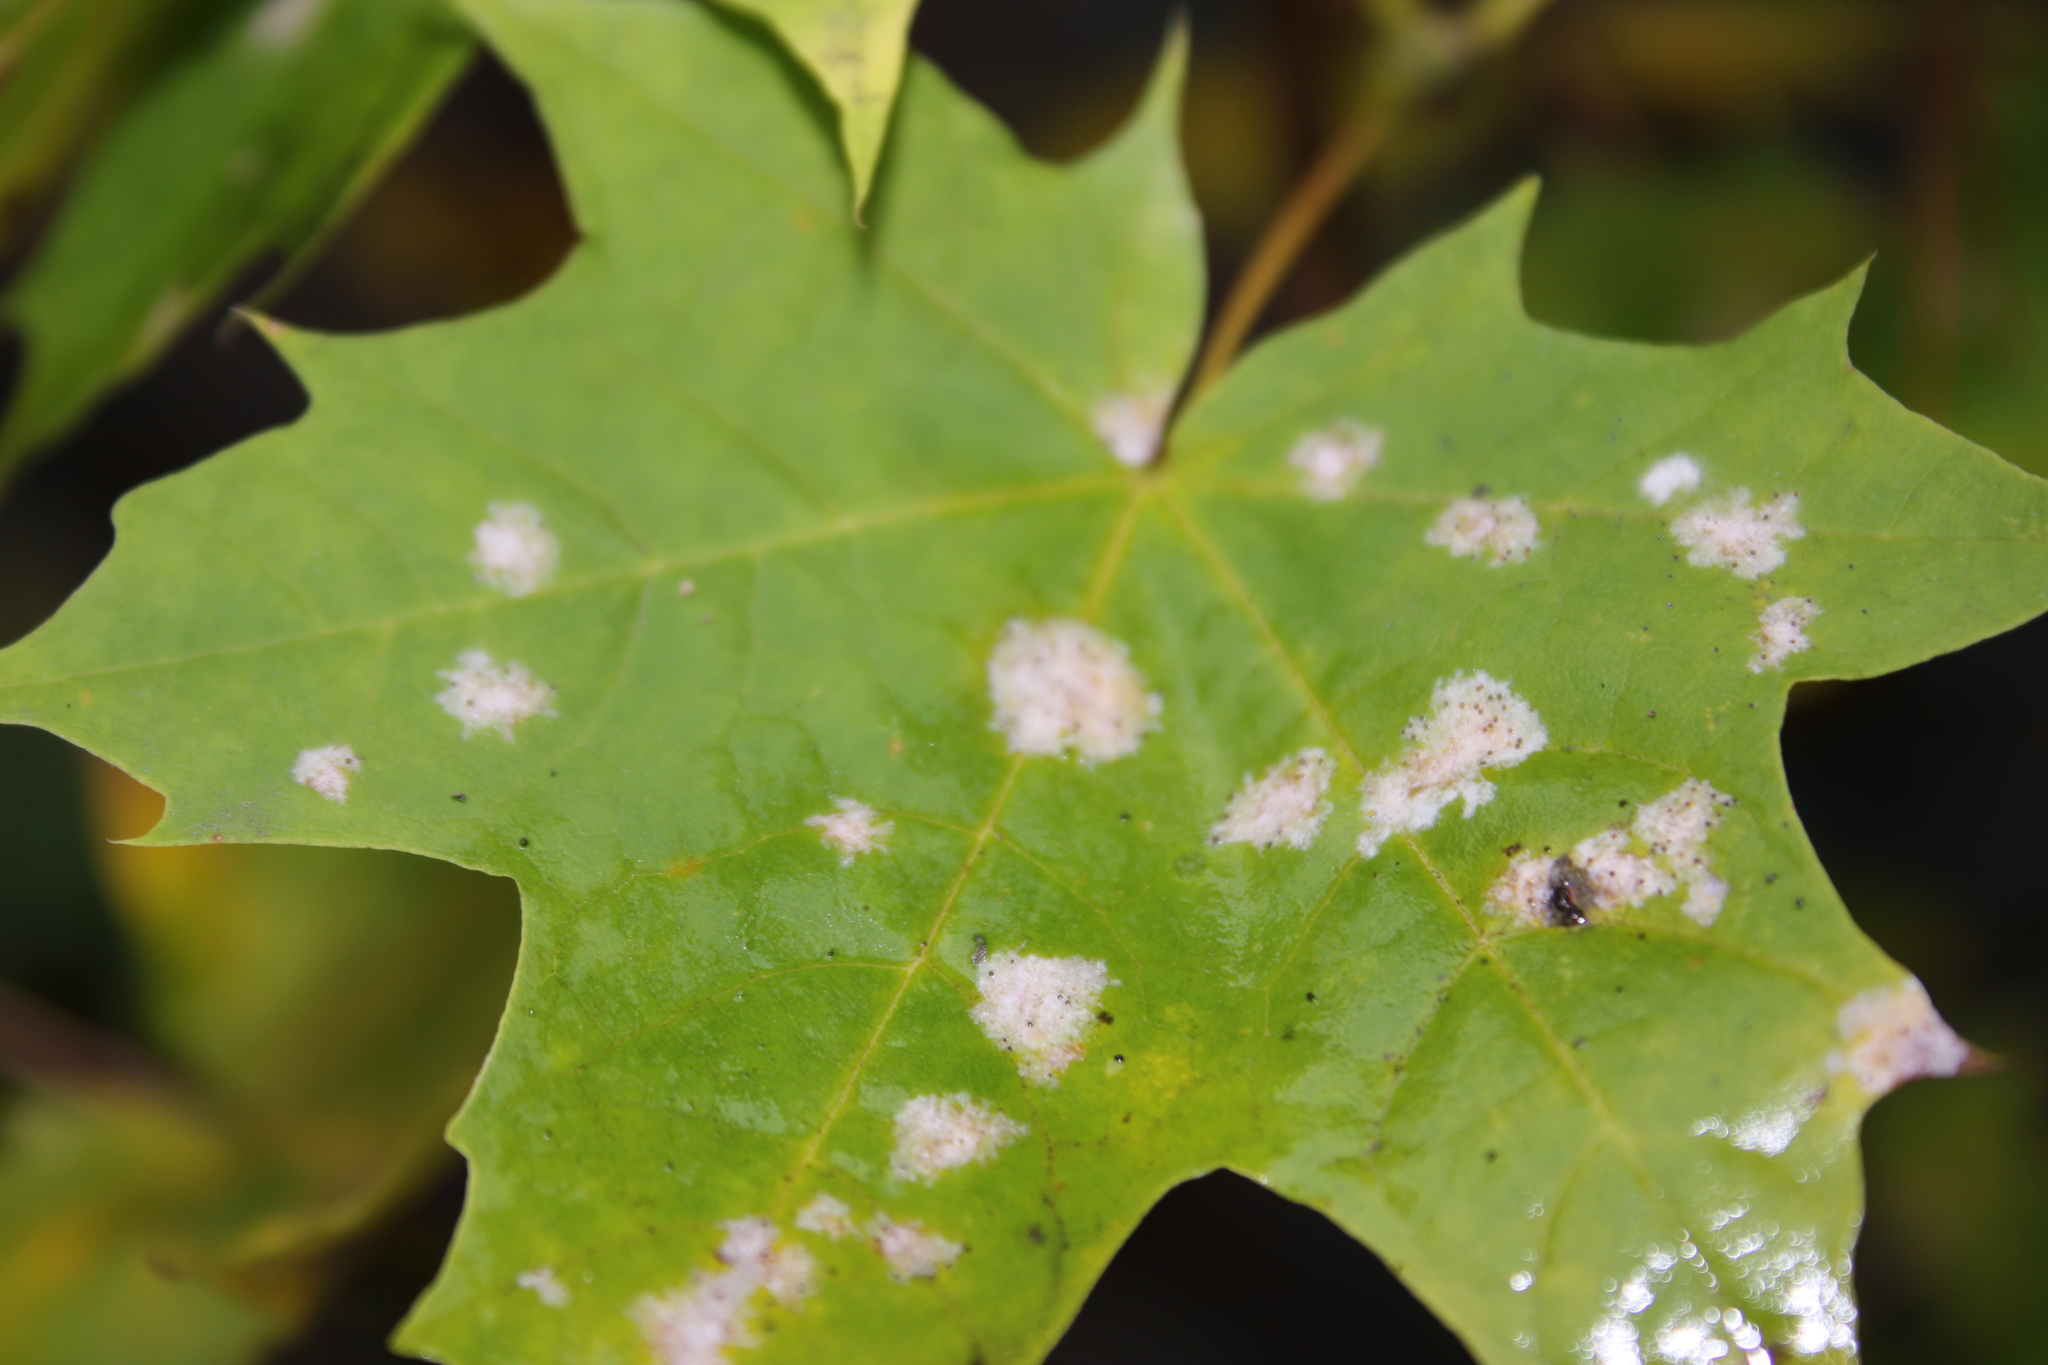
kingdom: Fungi
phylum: Ascomycota
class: Leotiomycetes
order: Helotiales
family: Erysiphaceae
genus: Sawadaea
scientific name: Sawadaea tulasnei
